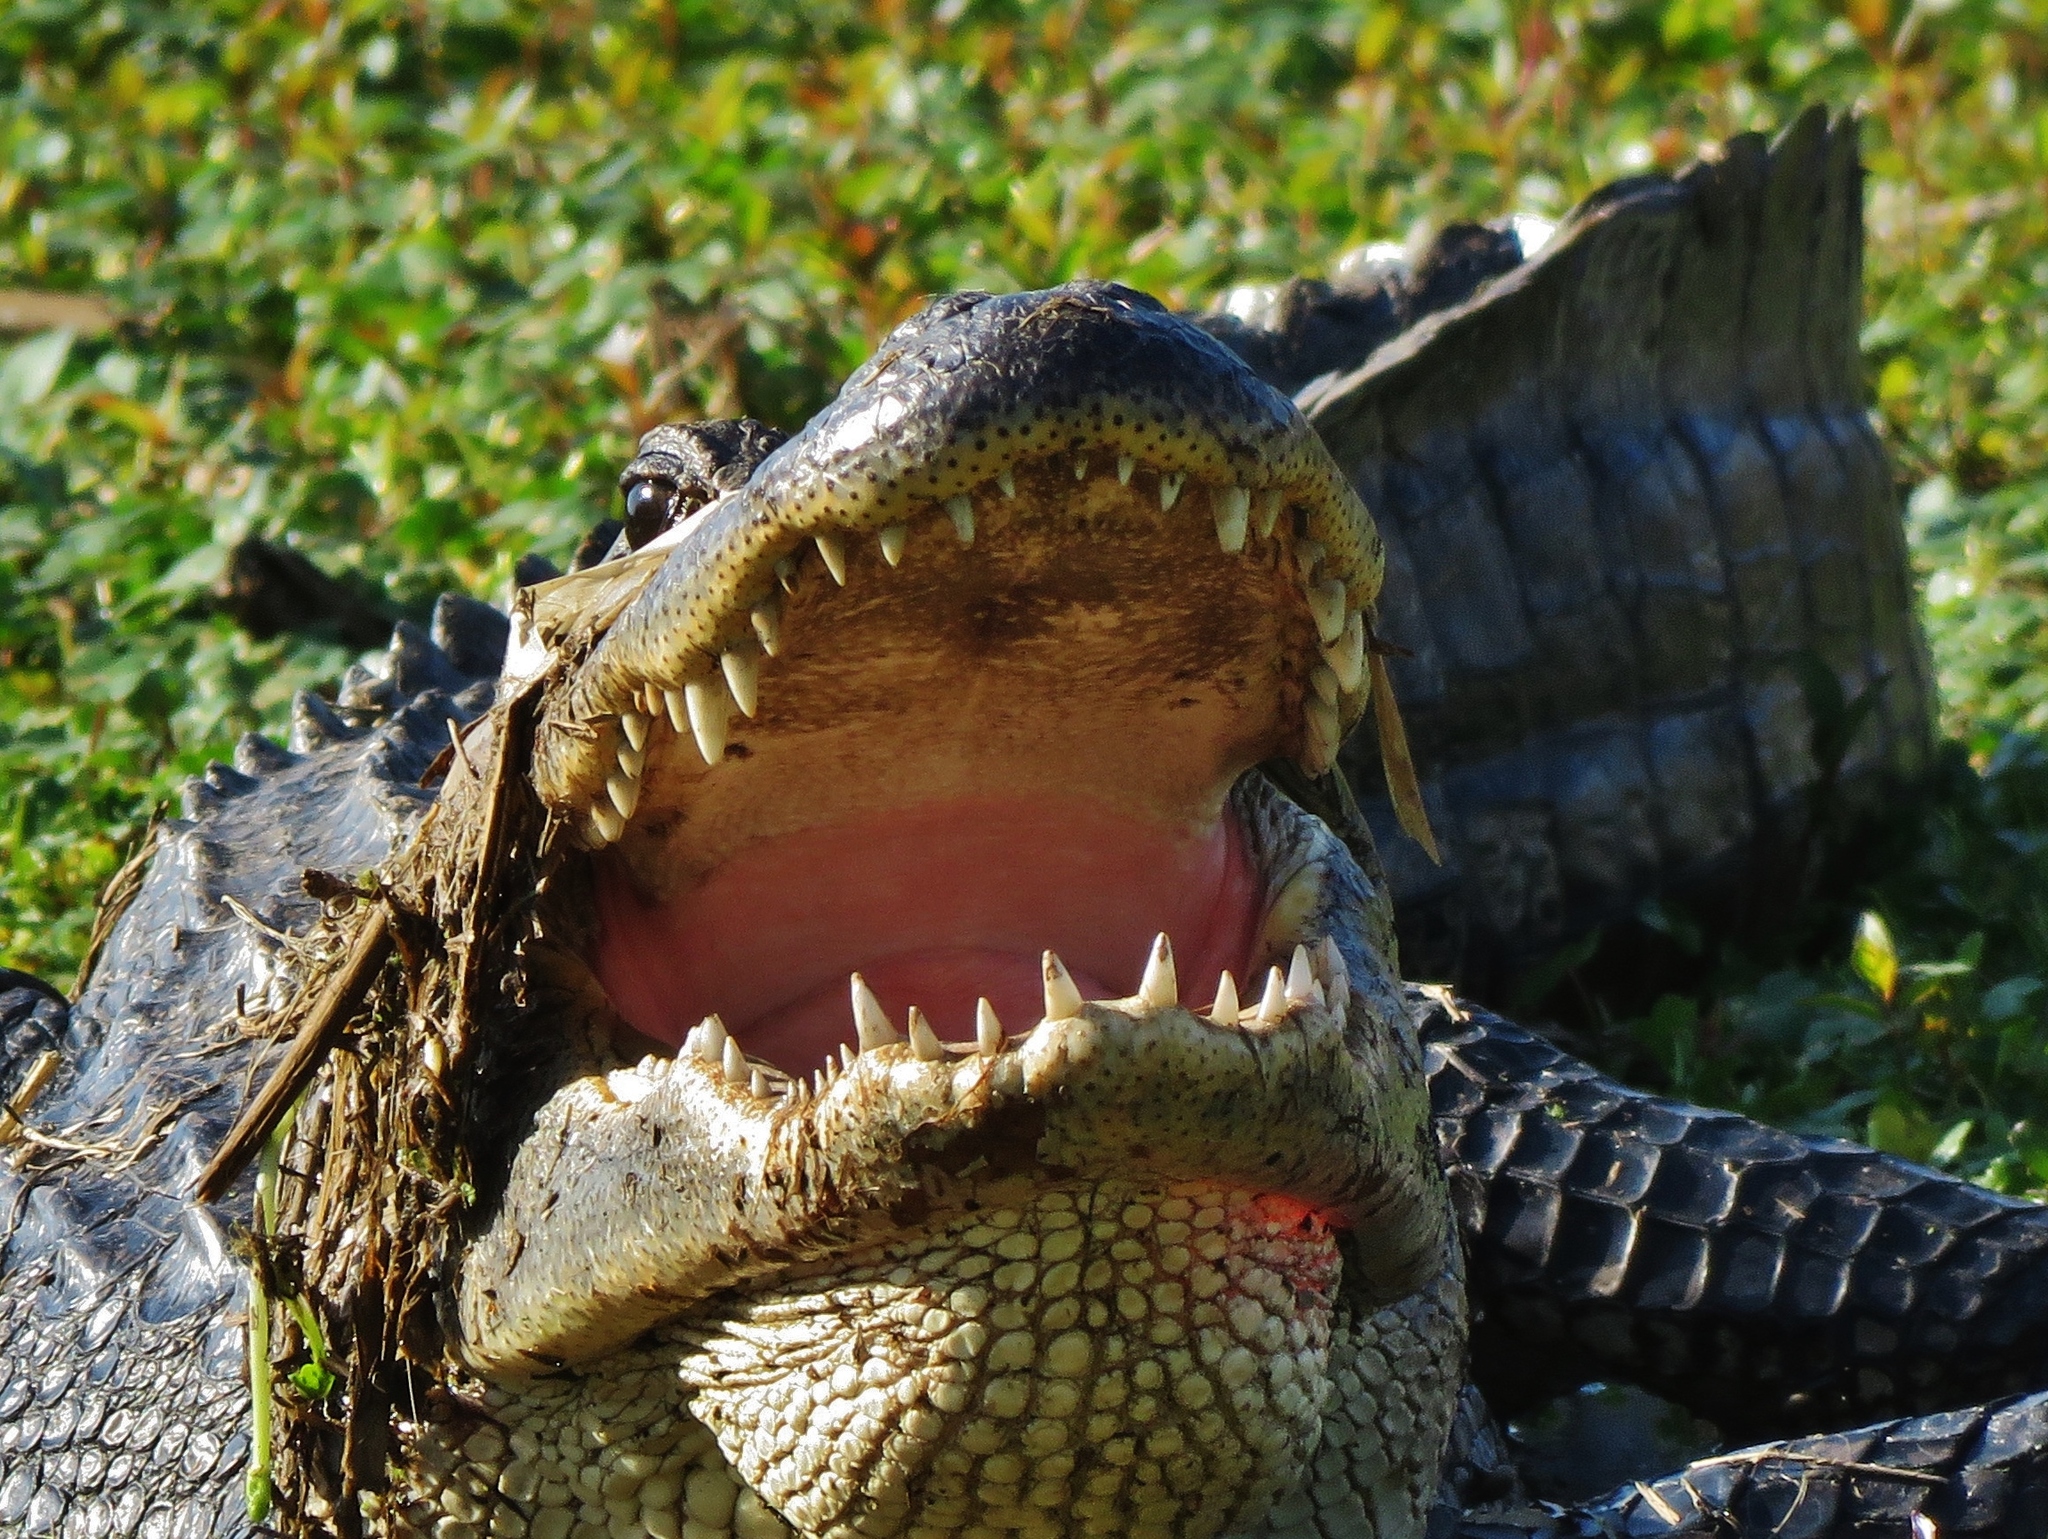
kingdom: Animalia
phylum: Chordata
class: Crocodylia
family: Alligatoridae
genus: Alligator
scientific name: Alligator mississippiensis
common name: American alligator
